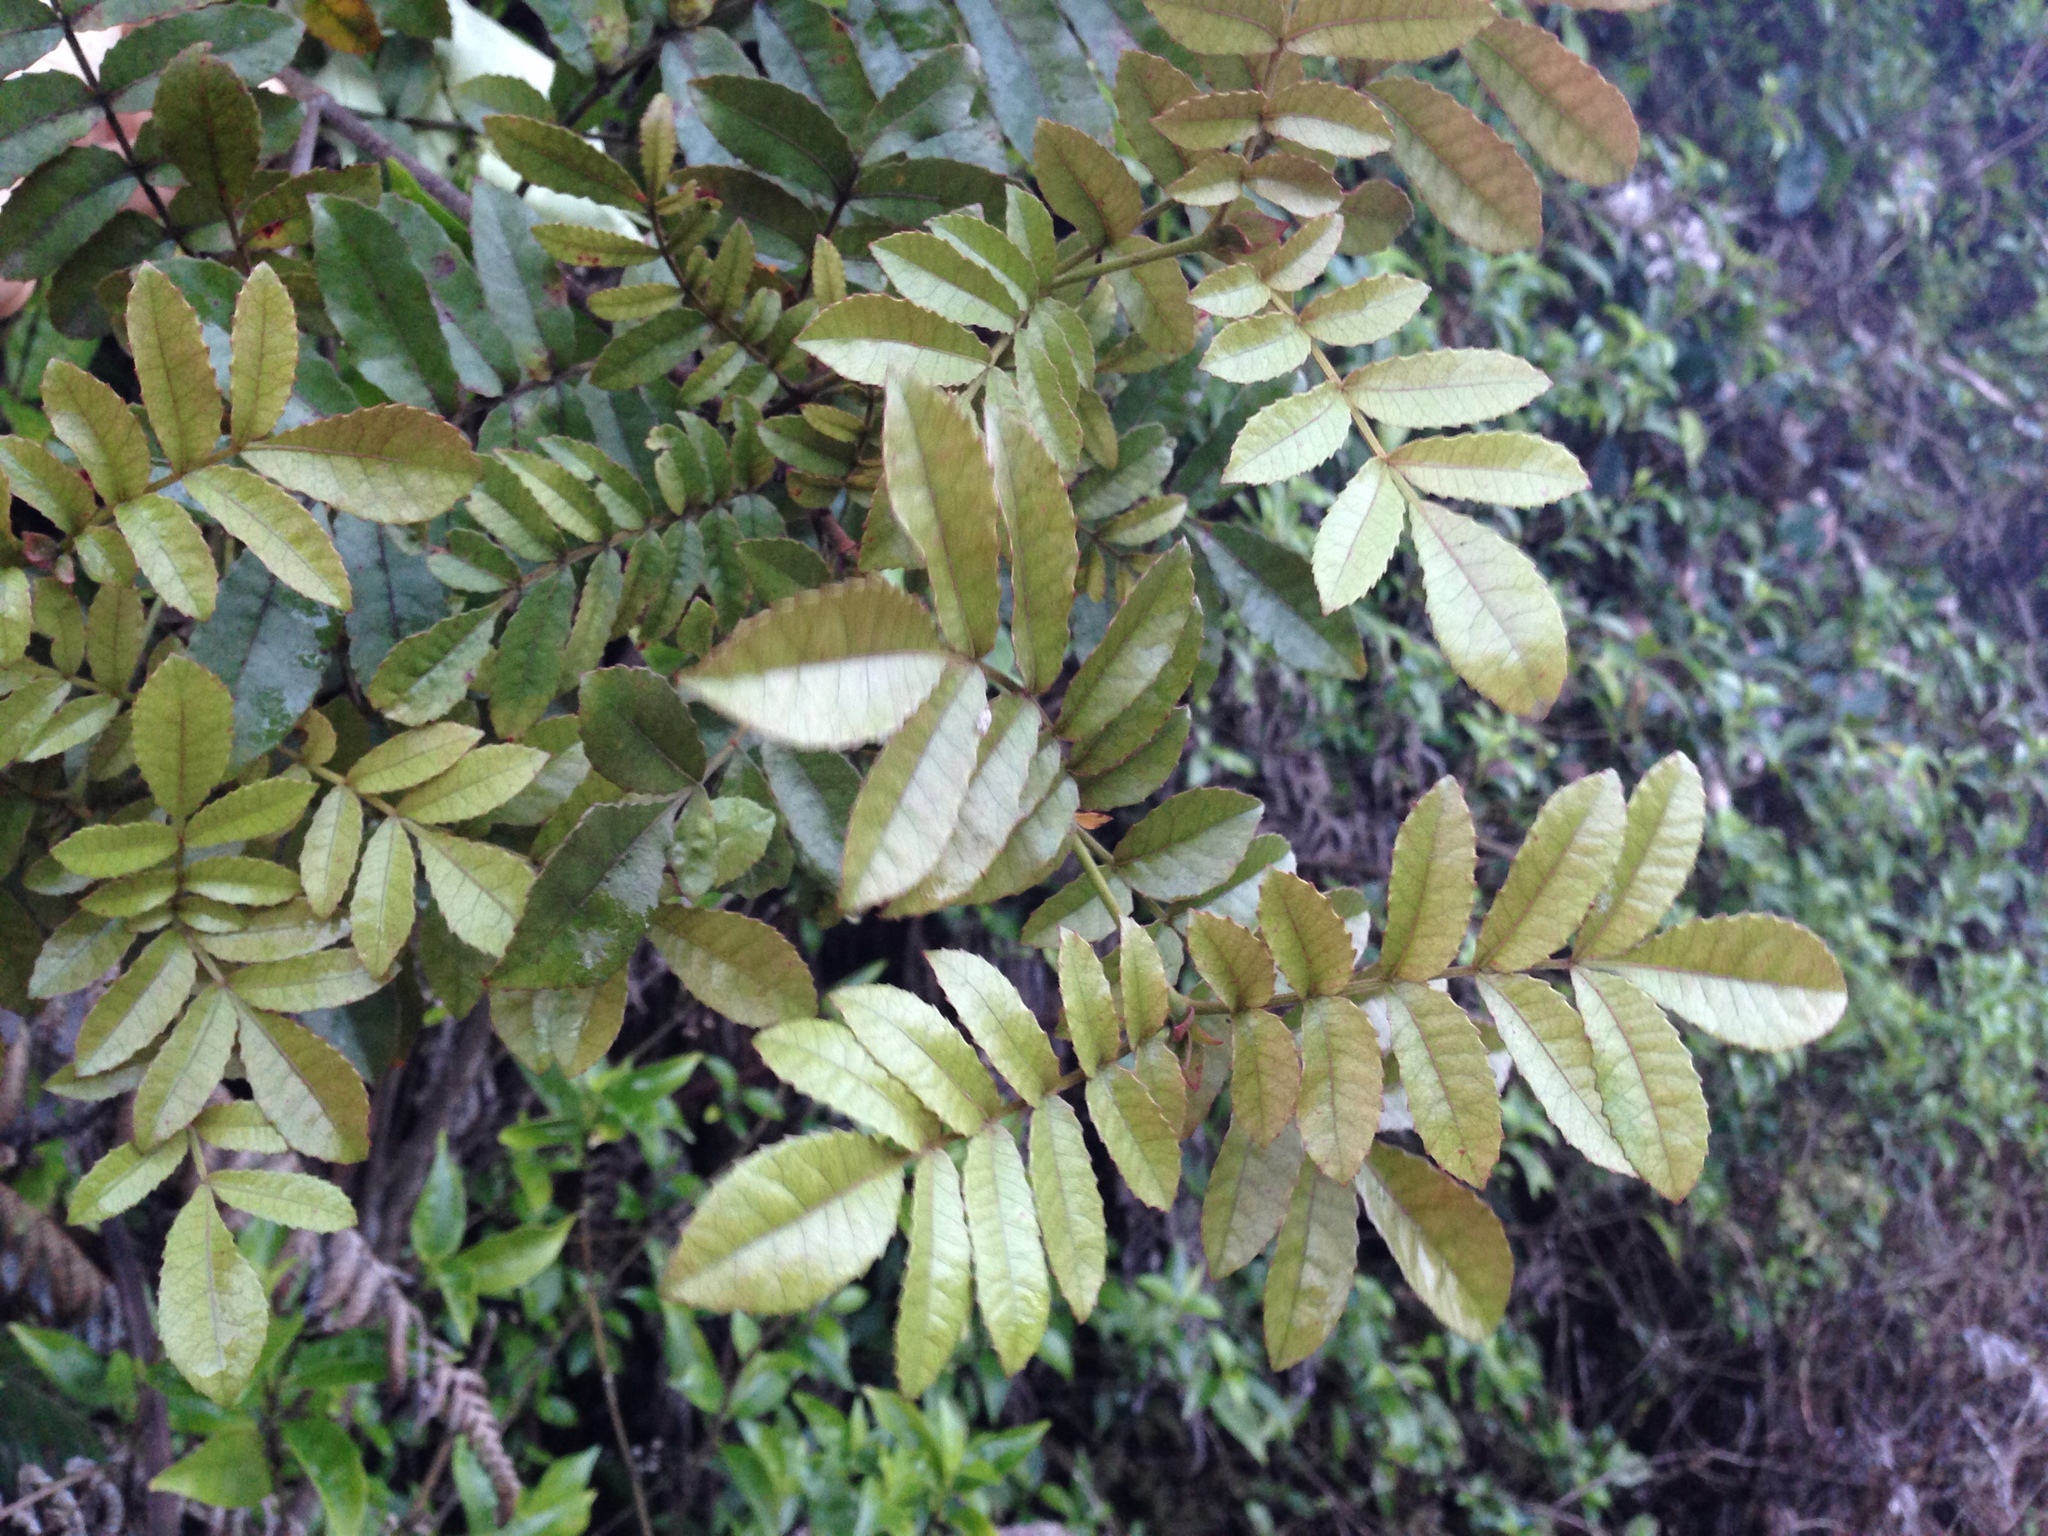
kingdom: Plantae
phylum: Tracheophyta
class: Magnoliopsida
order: Oxalidales
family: Cunoniaceae
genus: Pterophylla
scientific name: Pterophylla sylvicola
